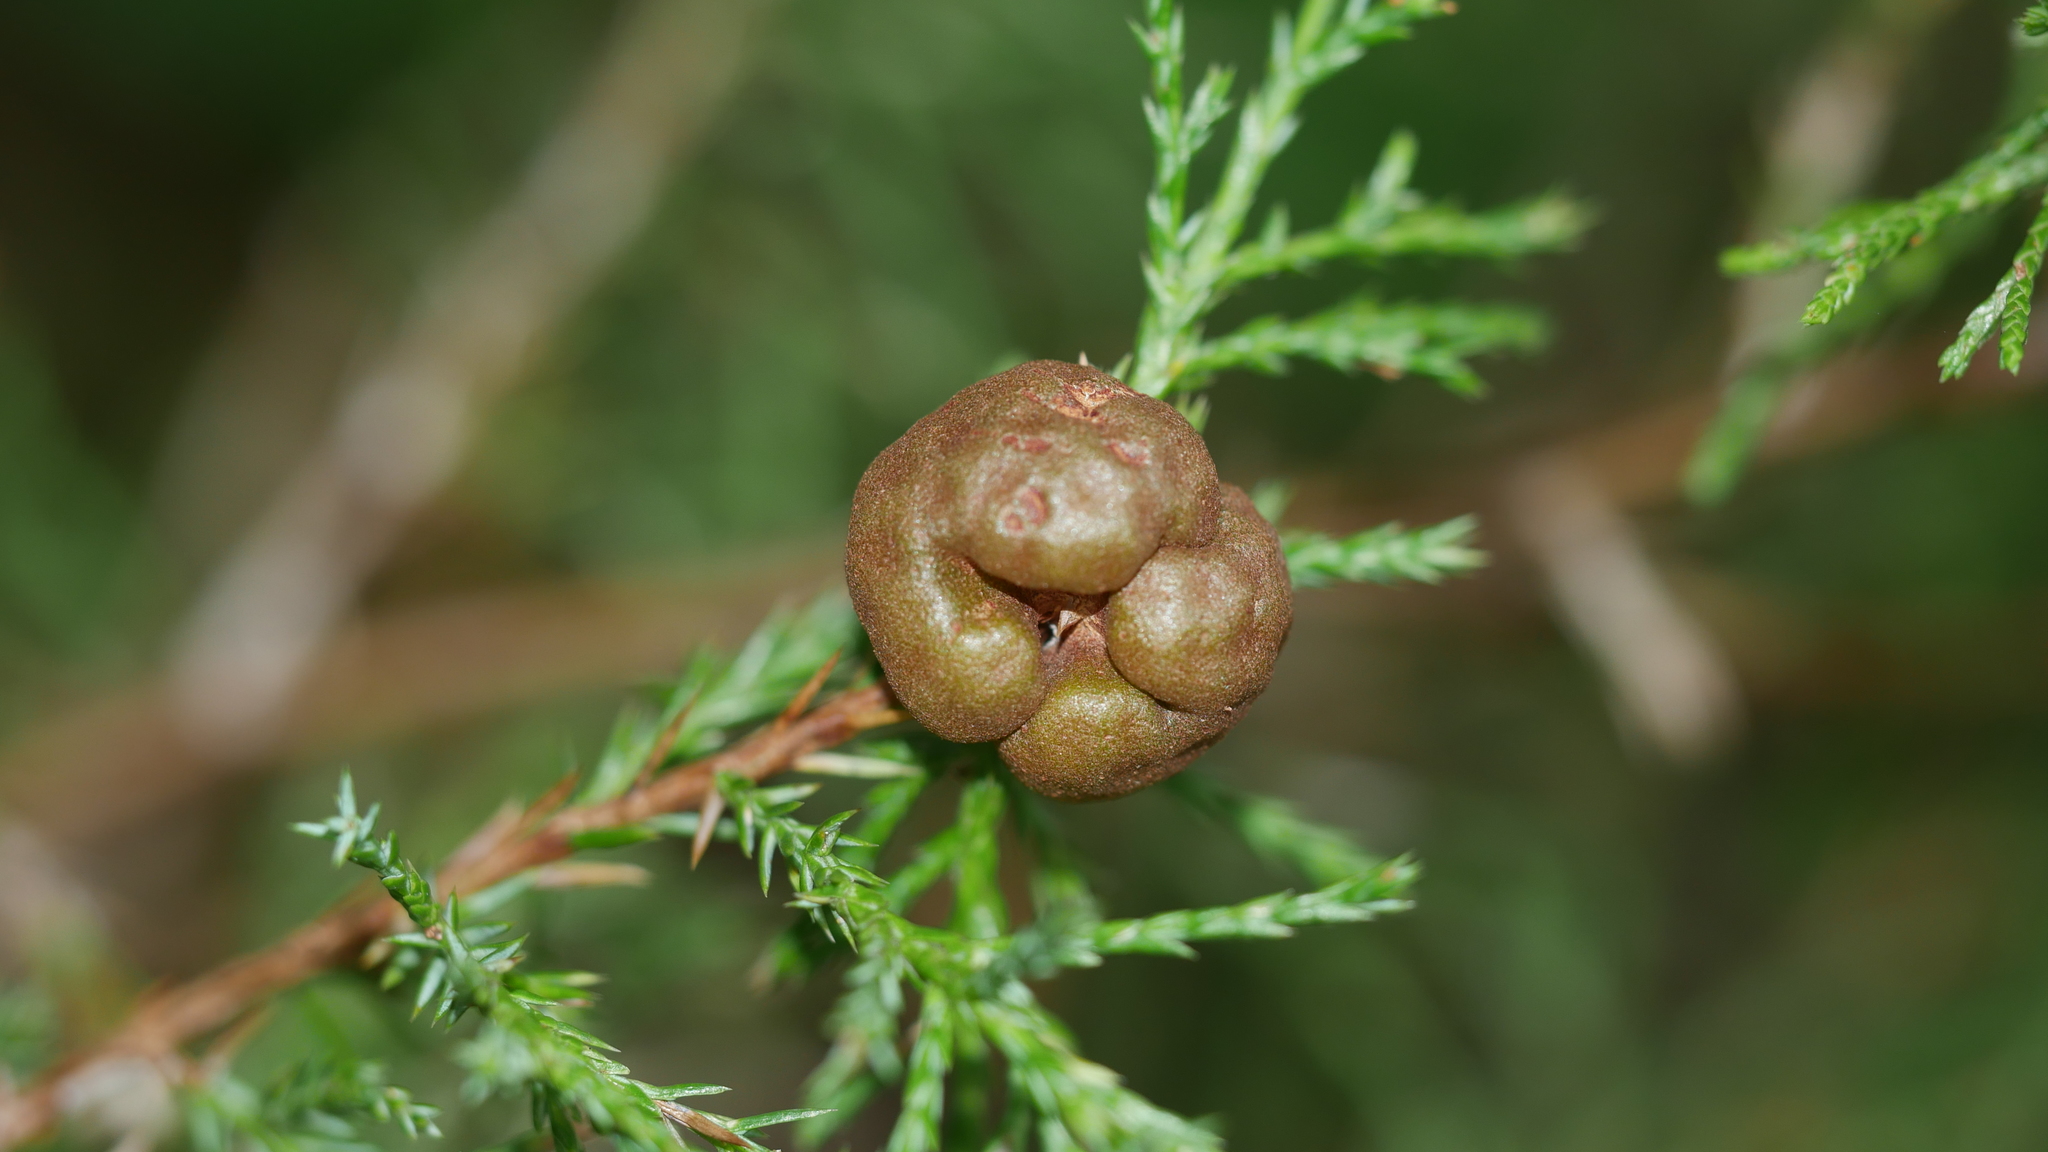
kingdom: Fungi
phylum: Basidiomycota
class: Pucciniomycetes
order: Pucciniales
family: Gymnosporangiaceae
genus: Gymnosporangium
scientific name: Gymnosporangium juniperi-virginianae
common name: Juniper-apple rust
